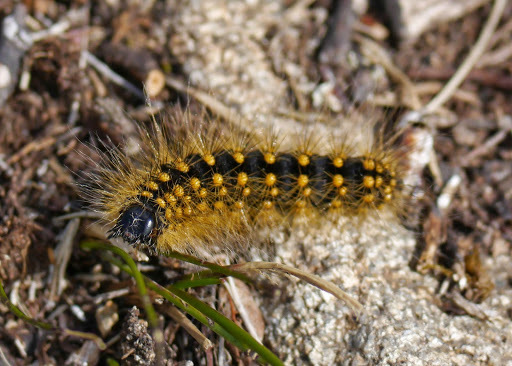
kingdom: Animalia
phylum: Arthropoda
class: Insecta
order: Lepidoptera
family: Noctuidae
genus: Acronicta
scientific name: Acronicta lupini
